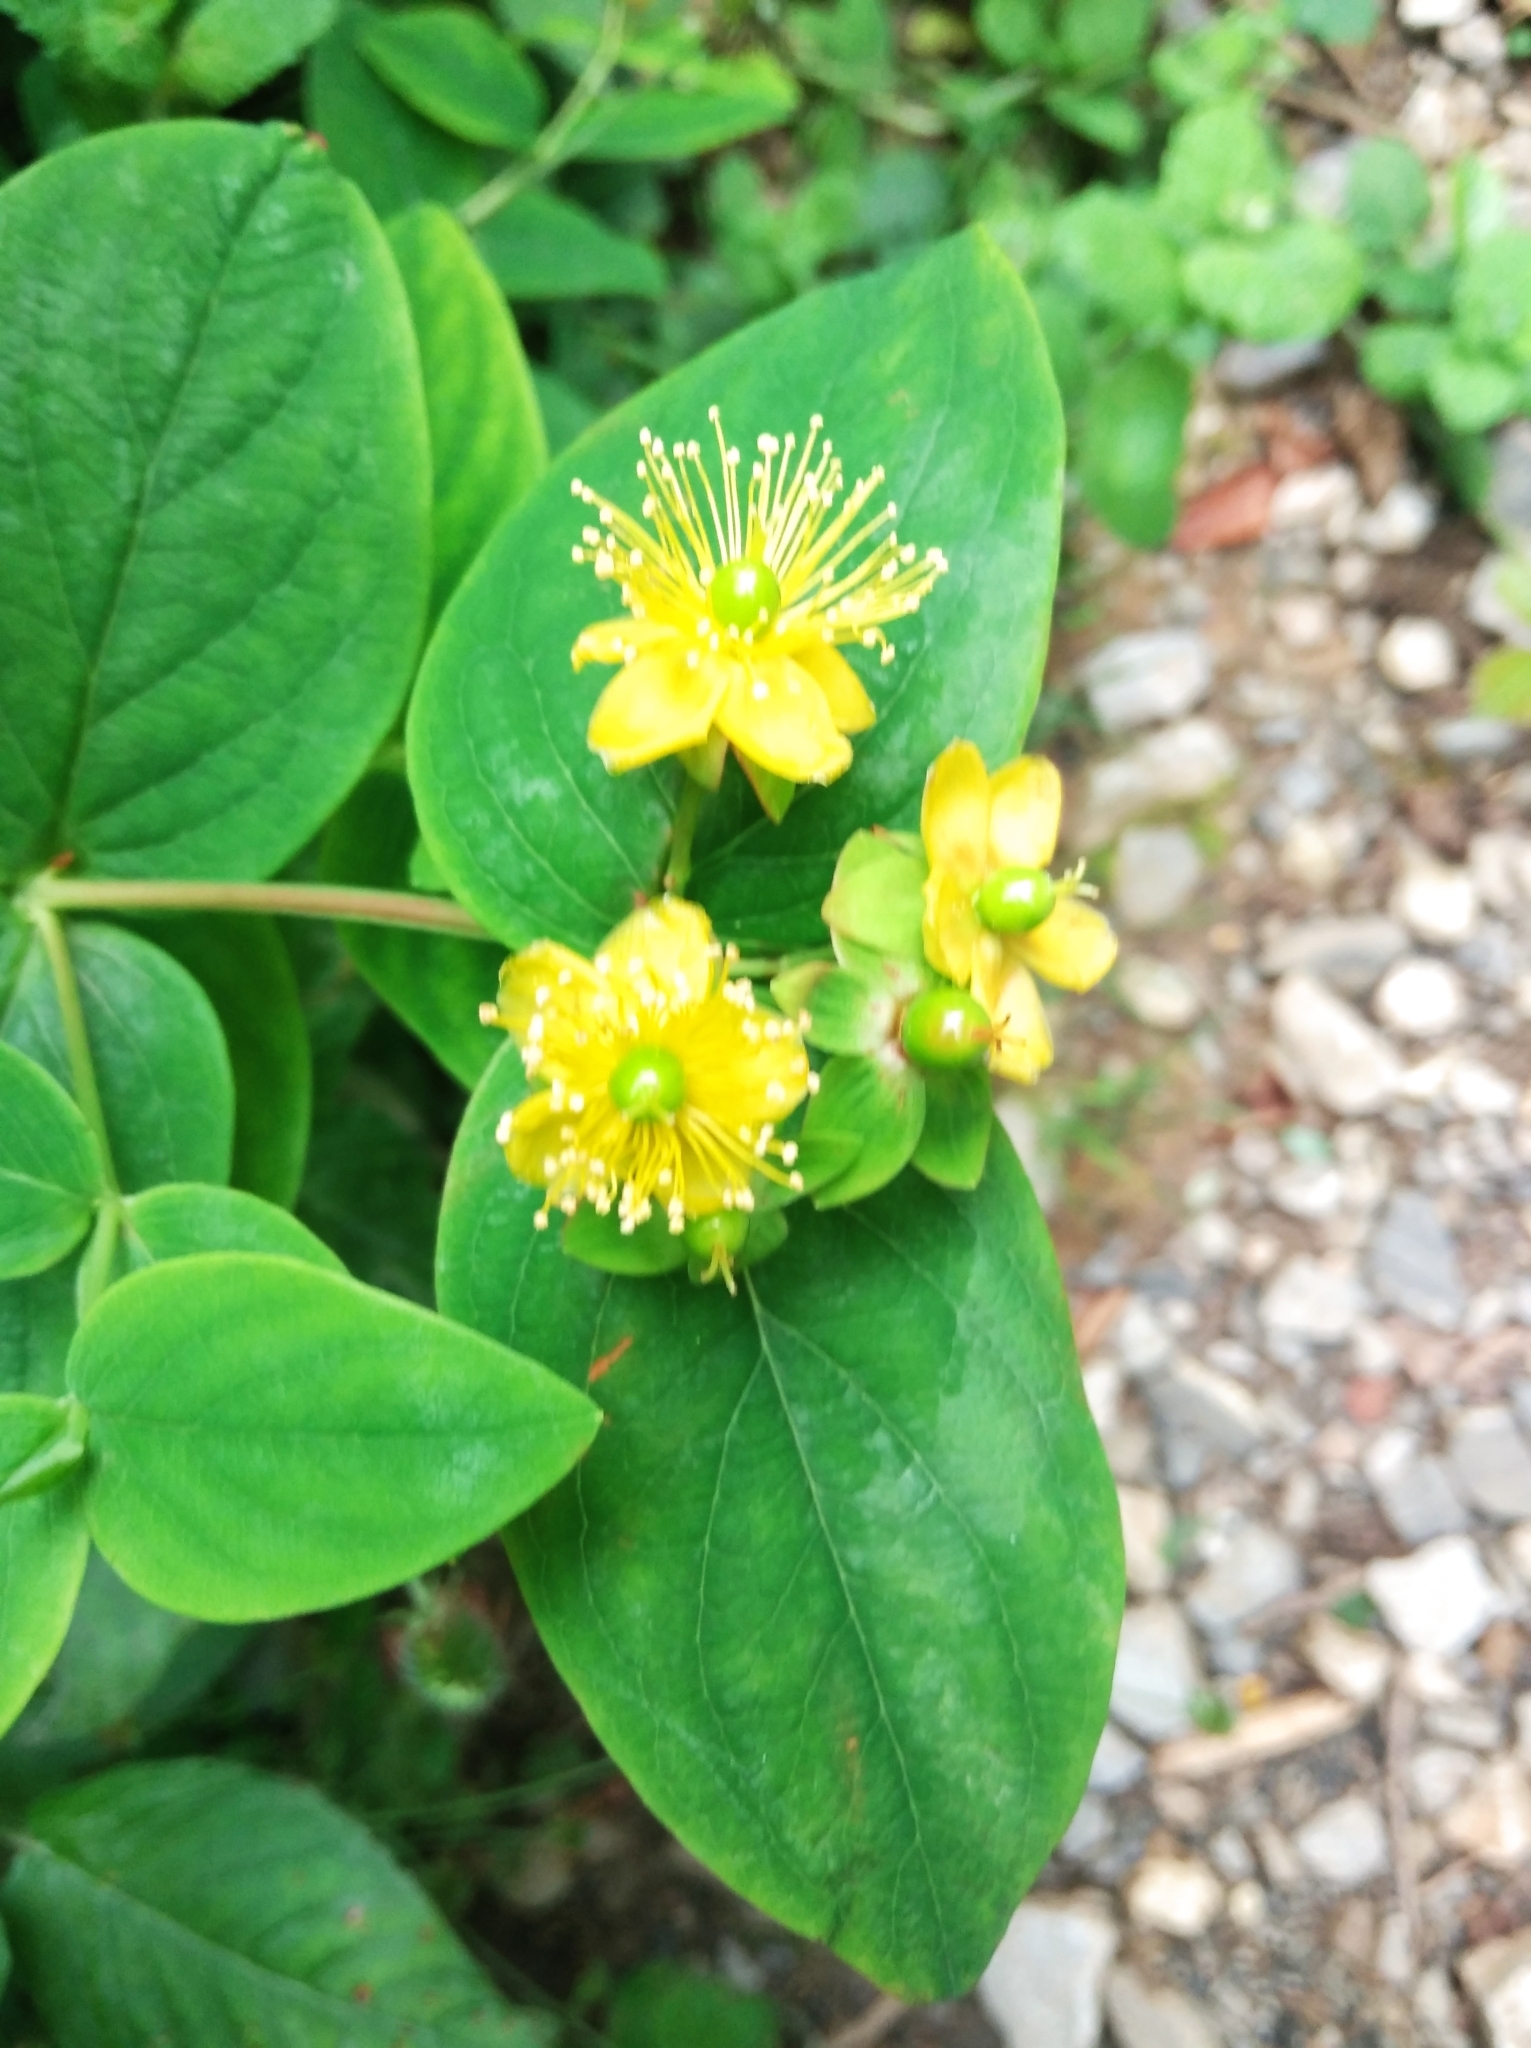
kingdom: Plantae
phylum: Tracheophyta
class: Magnoliopsida
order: Malpighiales
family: Hypericaceae
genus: Hypericum
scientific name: Hypericum androsaemum
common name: Sweet-amber
